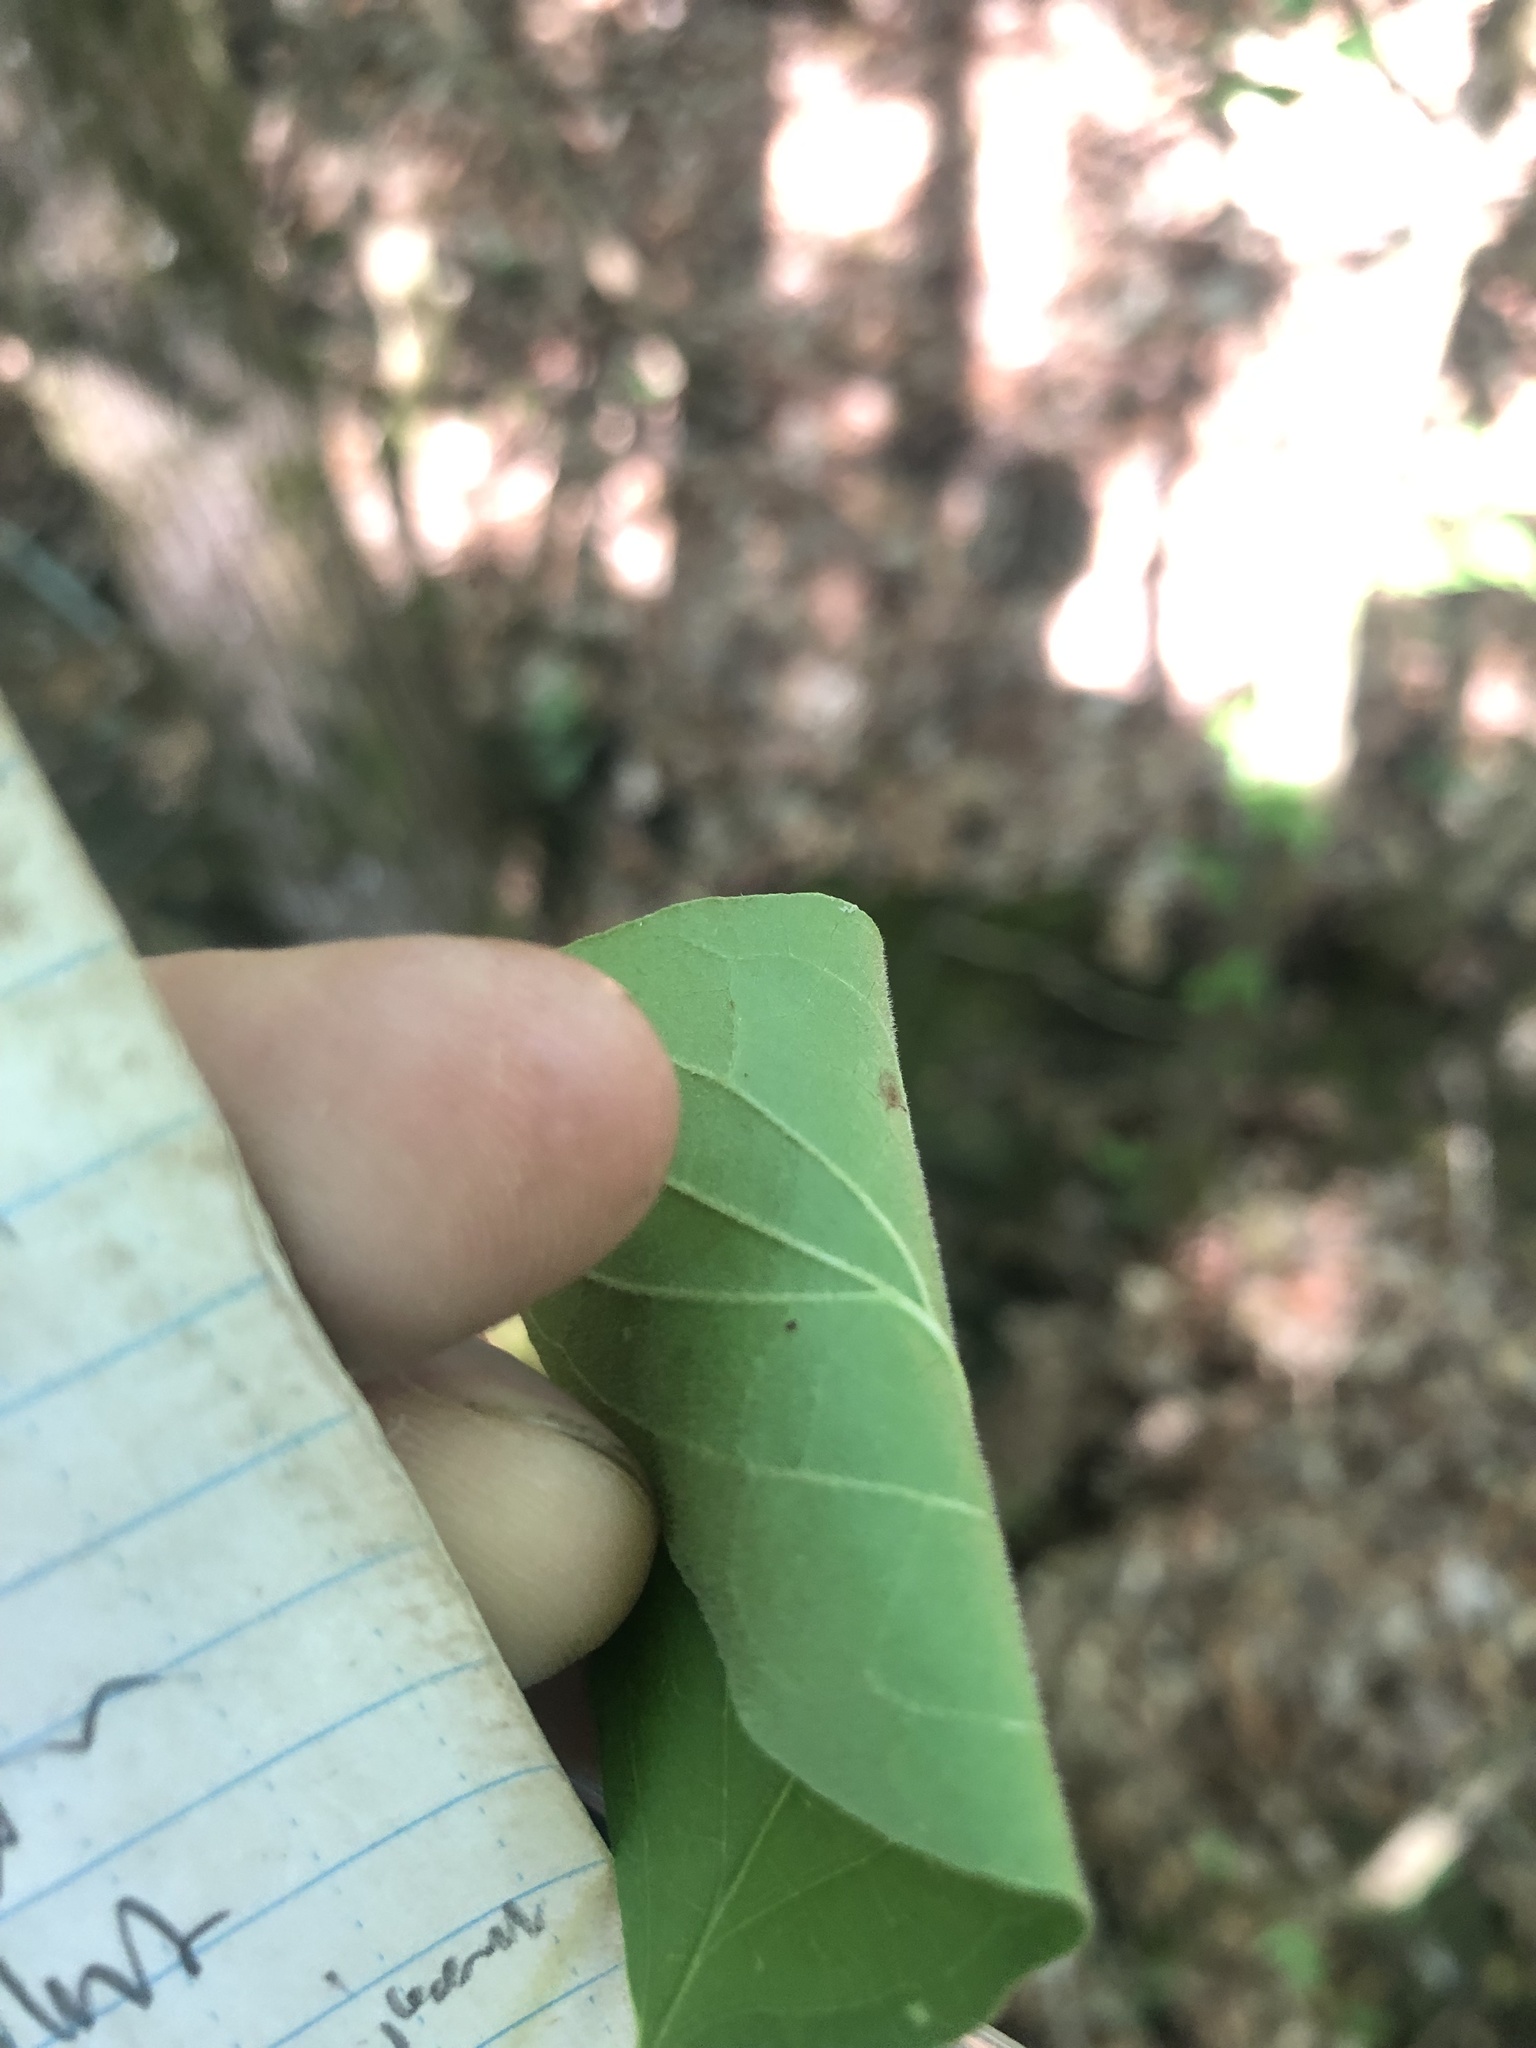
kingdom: Plantae
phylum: Tracheophyta
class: Magnoliopsida
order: Cornales
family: Cornaceae
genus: Cornus
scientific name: Cornus drummondii
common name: Rough-leaf dogwood
